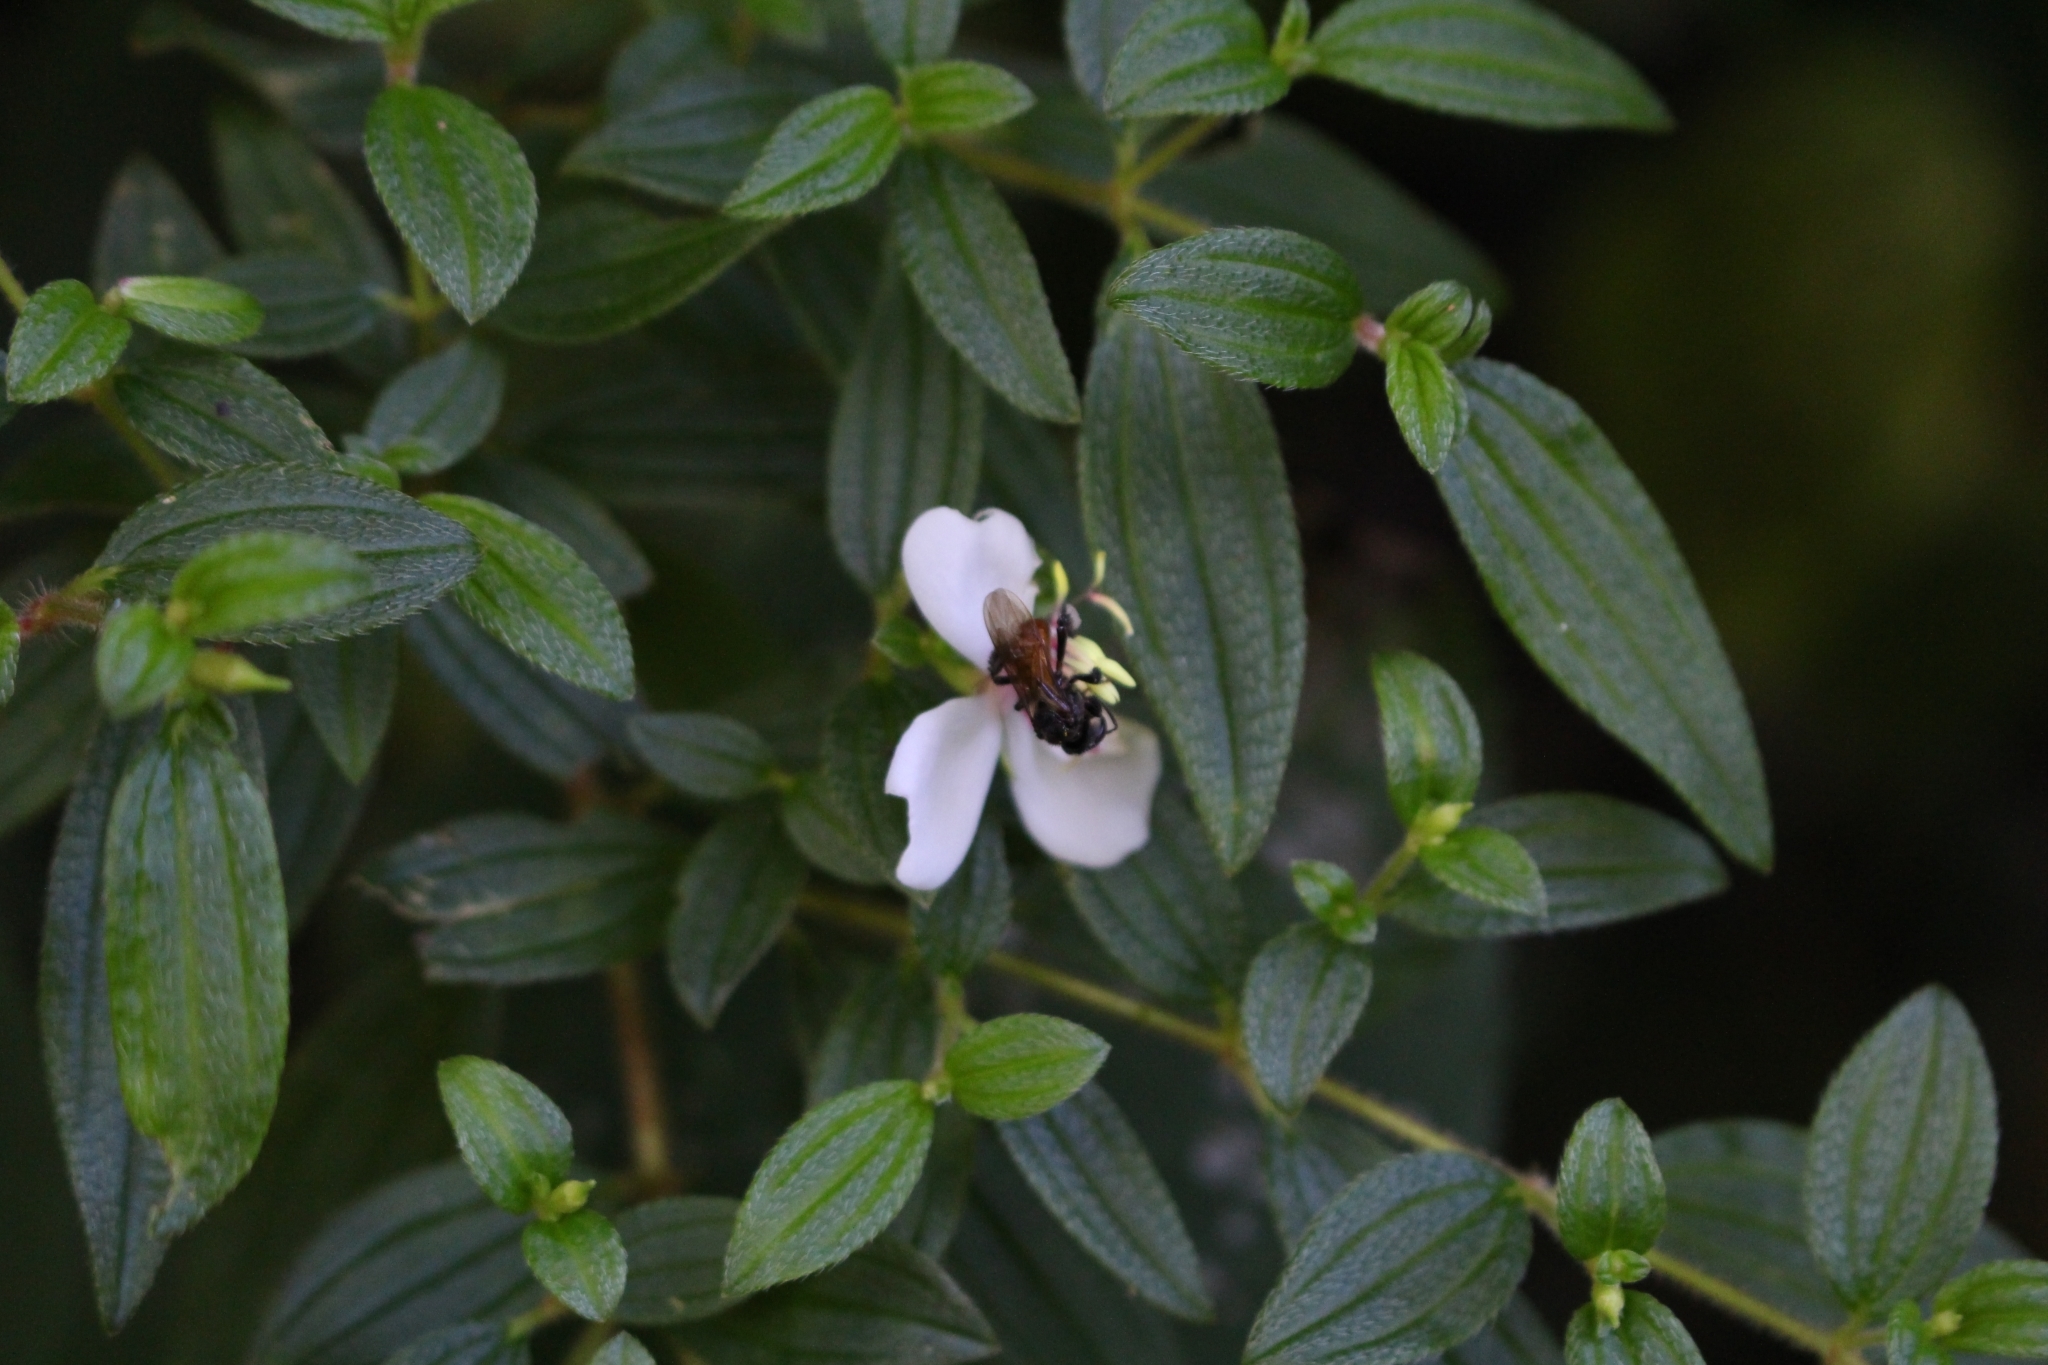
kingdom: Animalia
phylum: Arthropoda
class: Insecta
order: Hymenoptera
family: Apidae
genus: Trigona
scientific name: Trigona fulviventris
